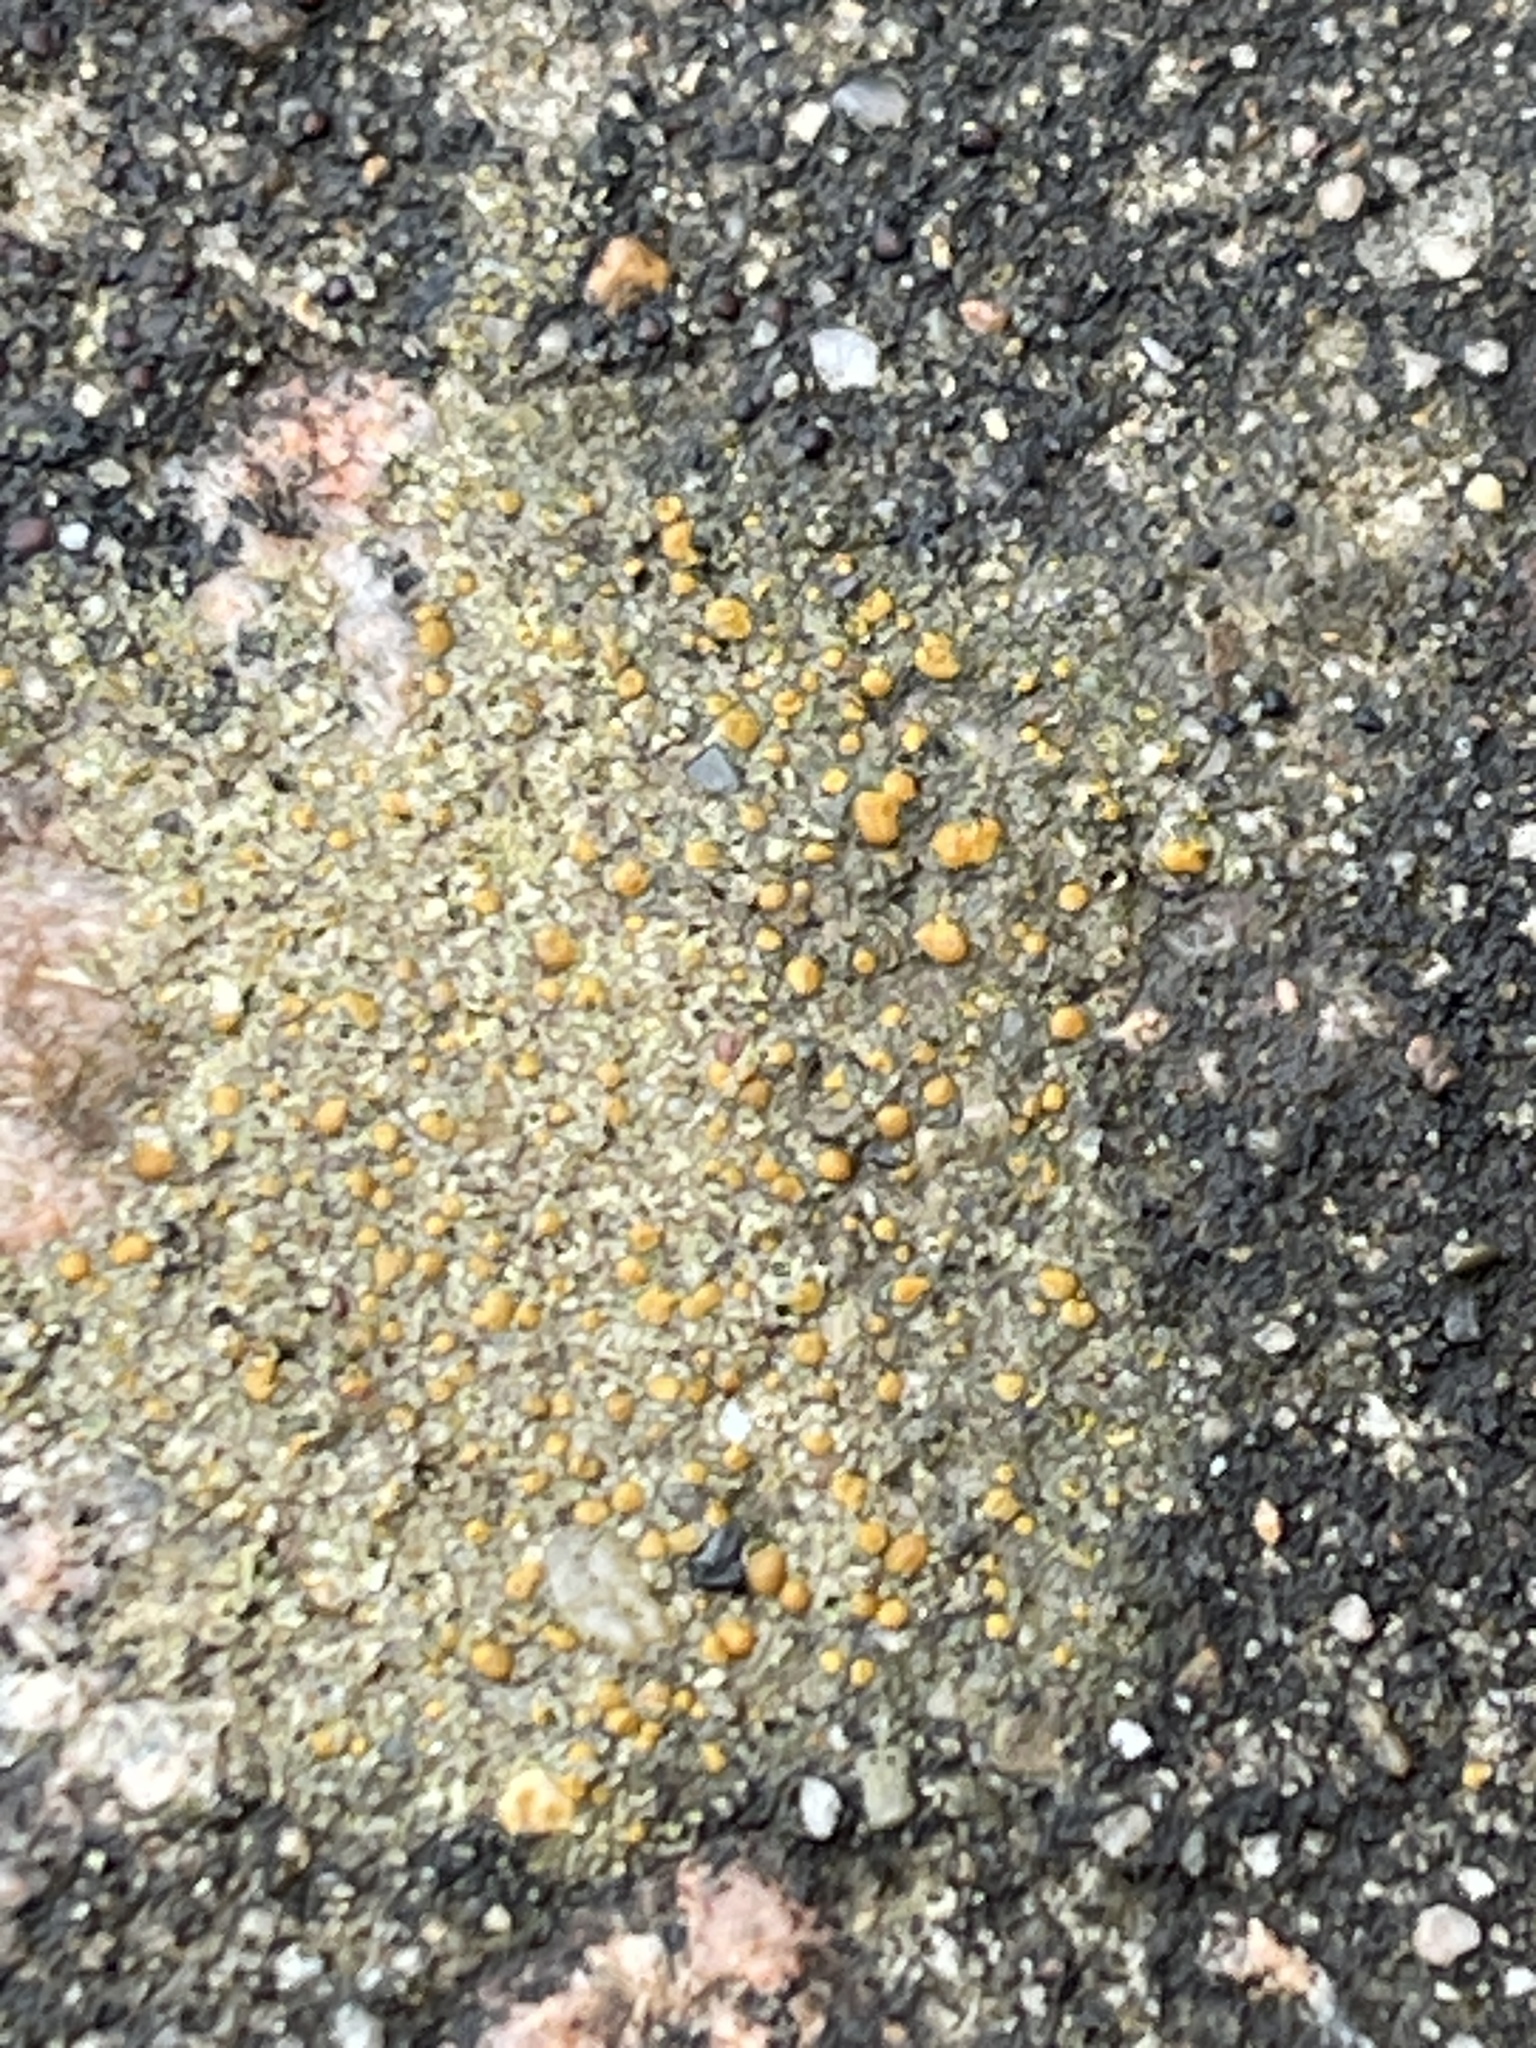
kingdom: Fungi
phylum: Ascomycota
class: Lecanoromycetes
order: Lecanorales
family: Psoraceae
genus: Protoblastenia
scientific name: Protoblastenia rupestris
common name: Chewing gum lichen
